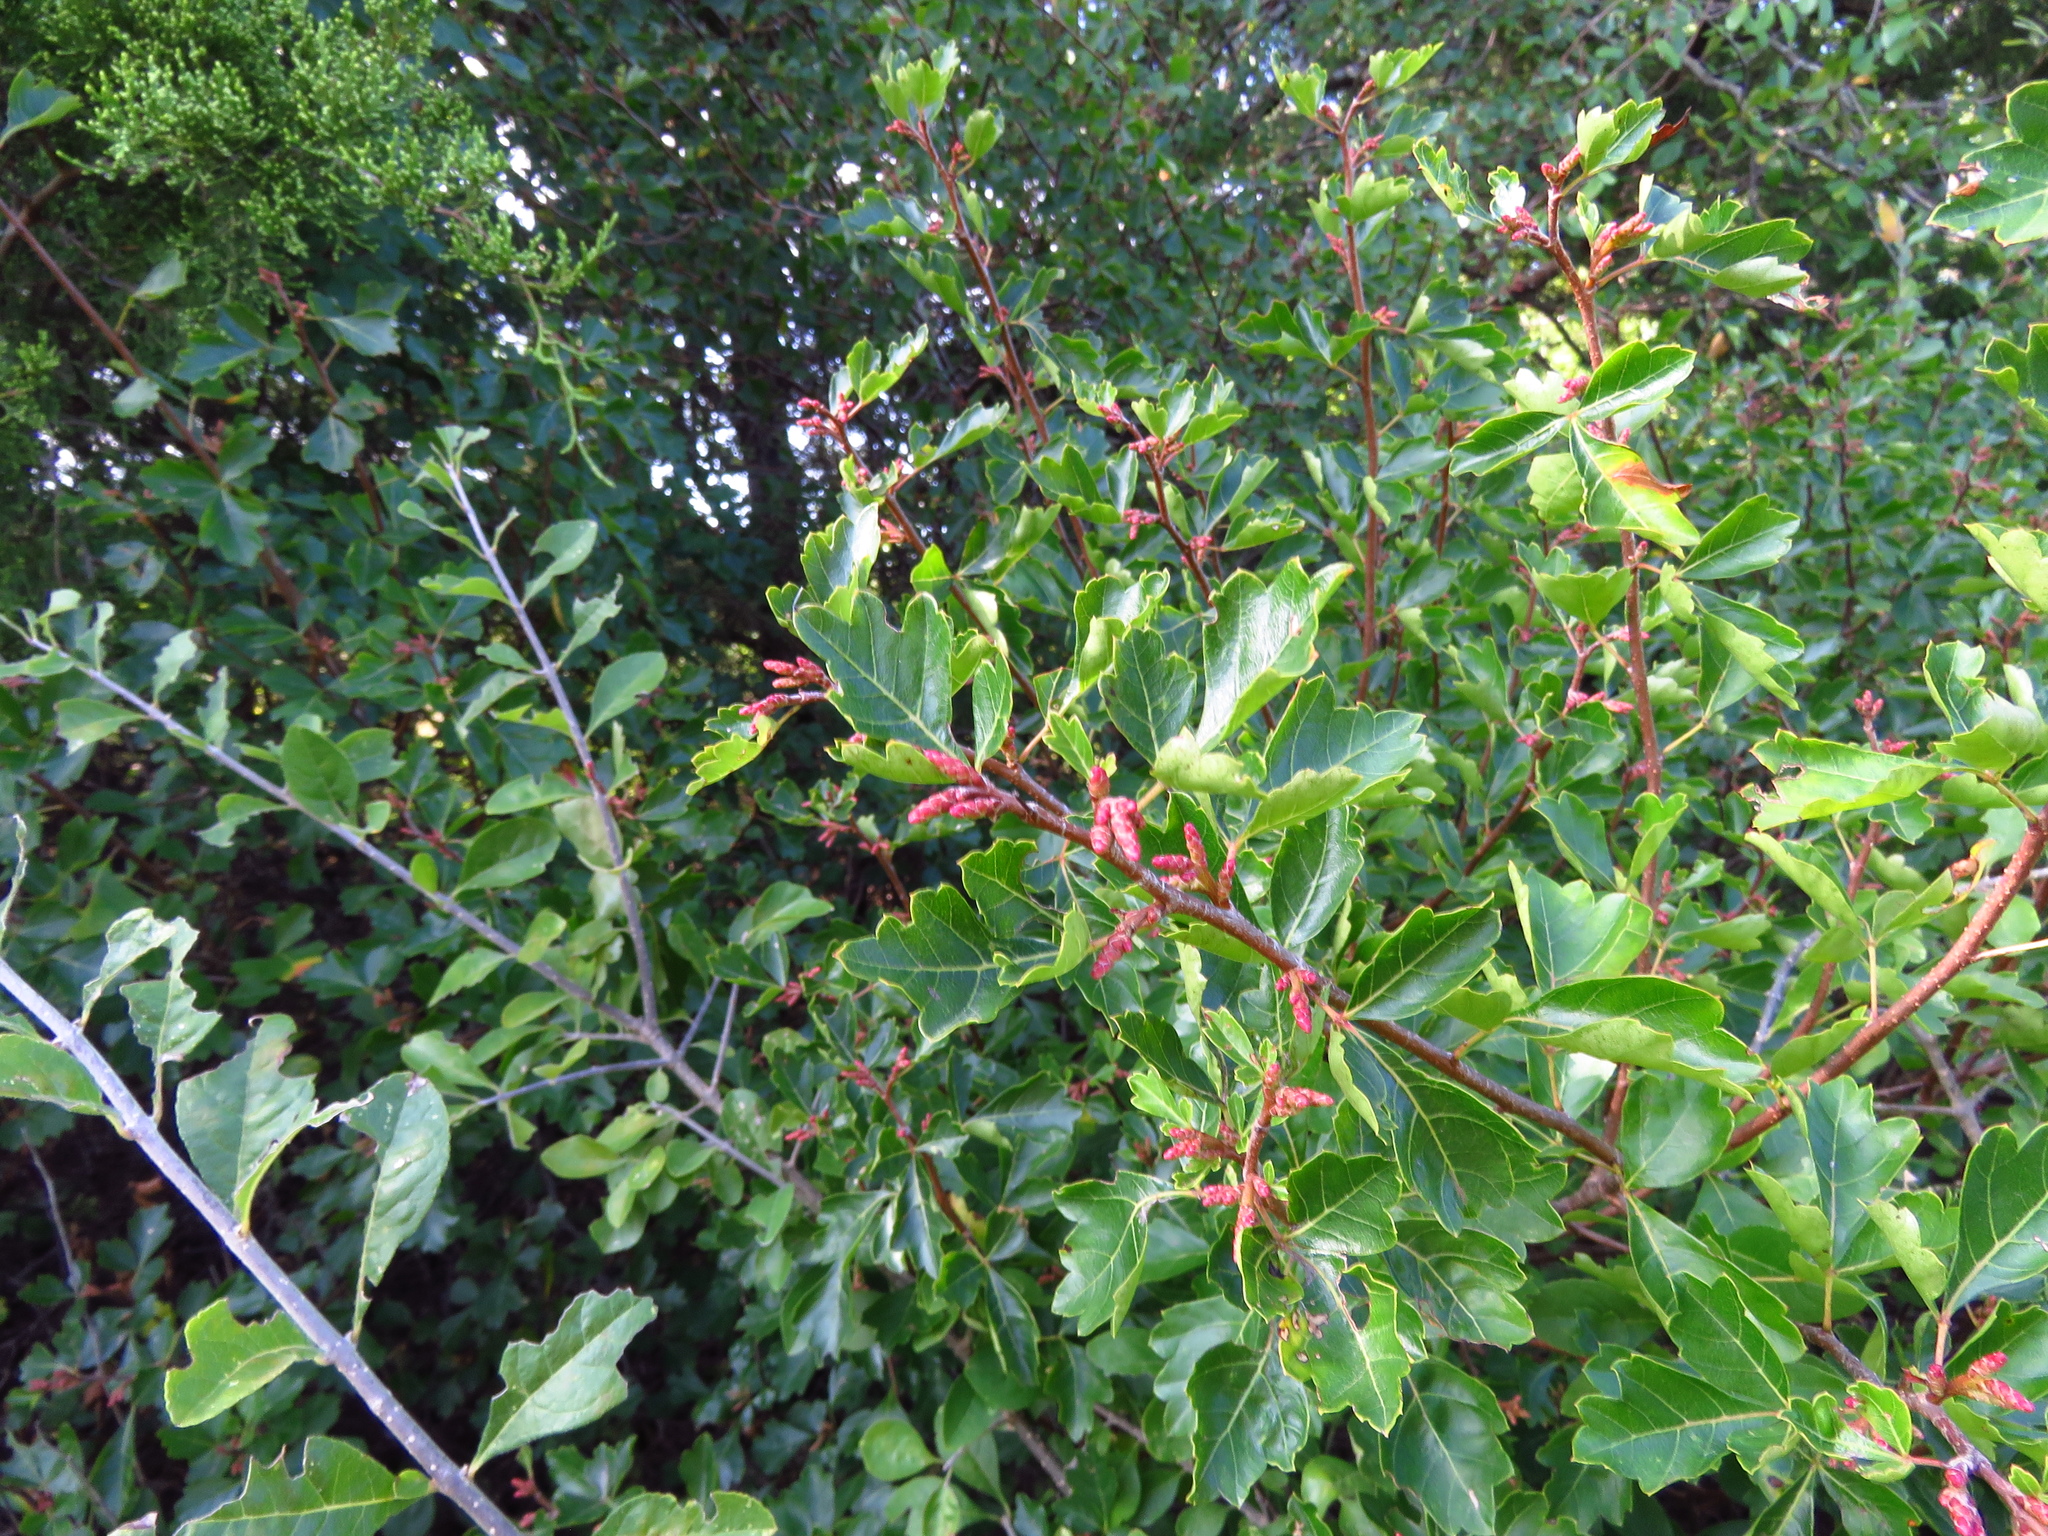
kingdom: Plantae
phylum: Tracheophyta
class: Magnoliopsida
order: Sapindales
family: Anacardiaceae
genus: Rhus
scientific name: Rhus aromatica
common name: Aromatic sumac
